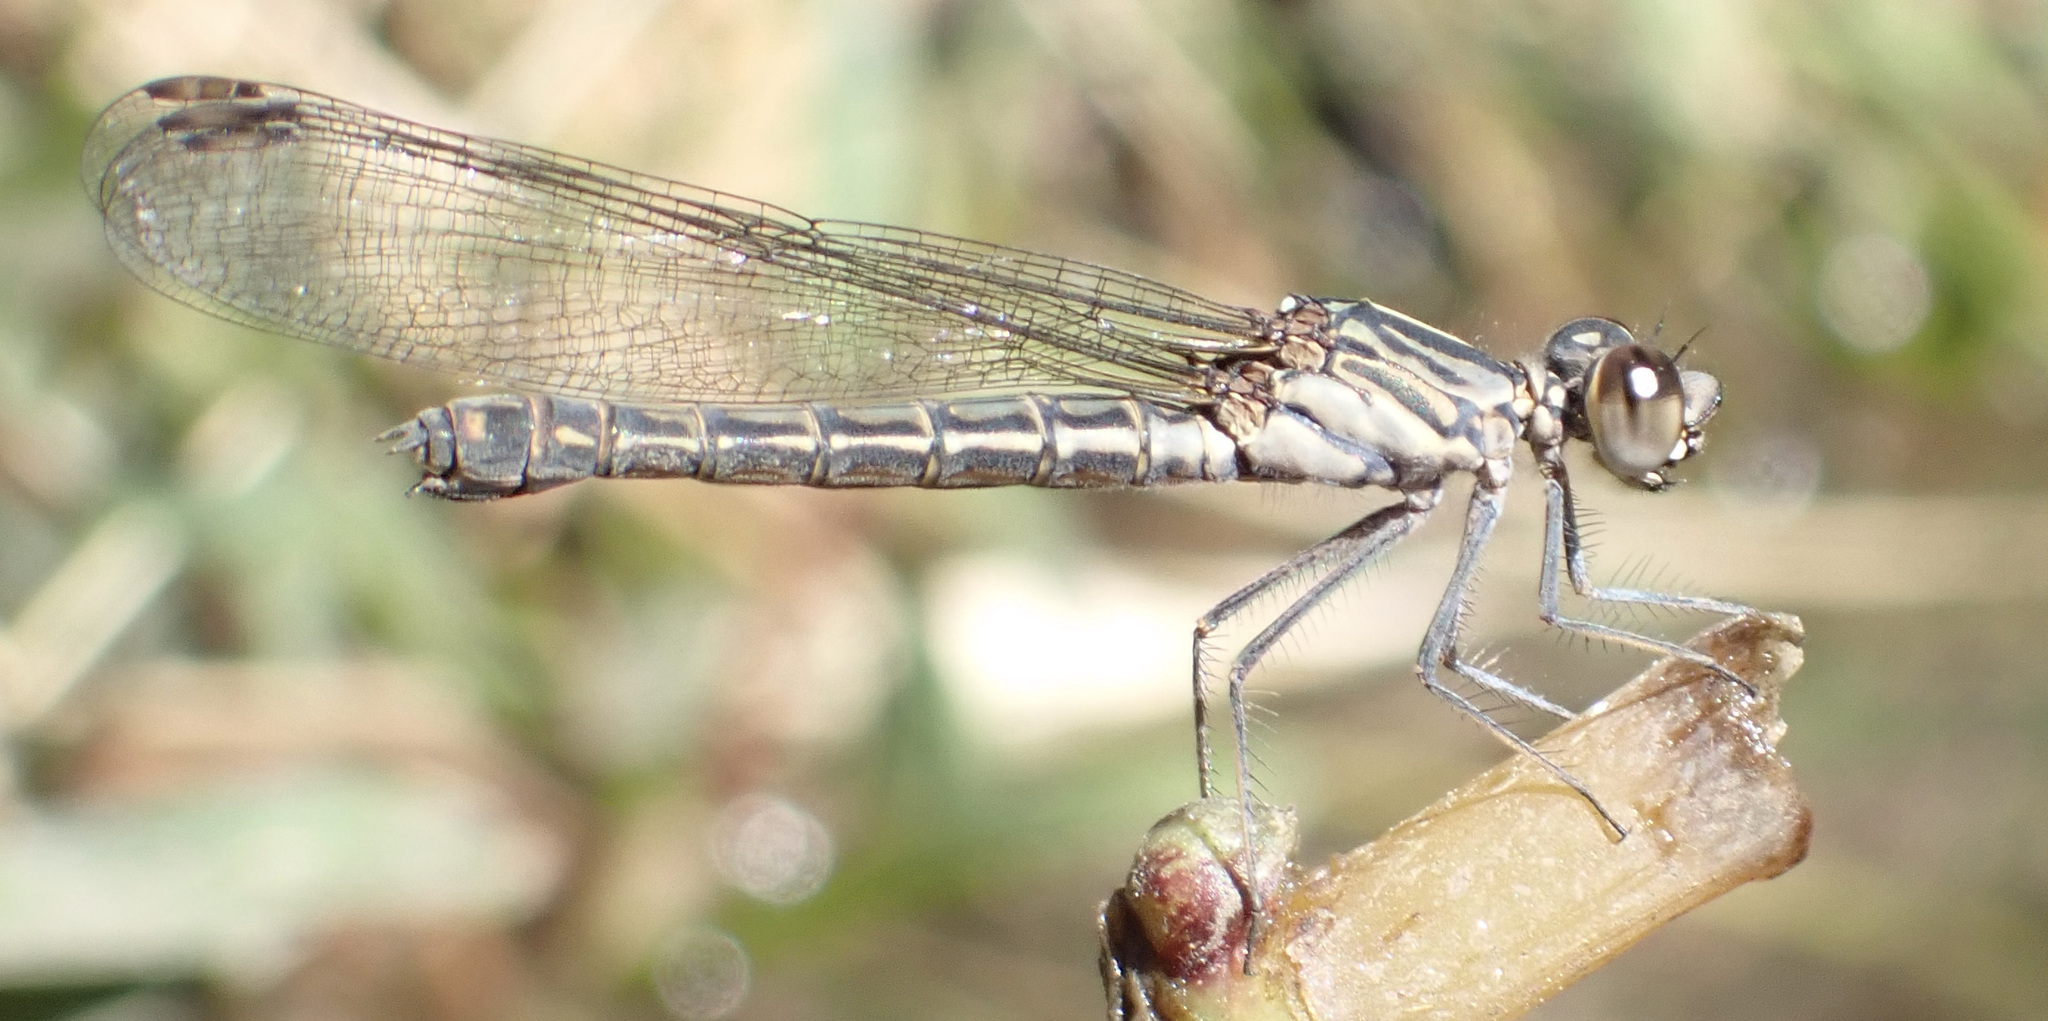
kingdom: Animalia
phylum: Arthropoda
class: Insecta
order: Odonata
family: Chlorocyphidae
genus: Platycypha
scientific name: Platycypha caligata
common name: Dancing jewel
